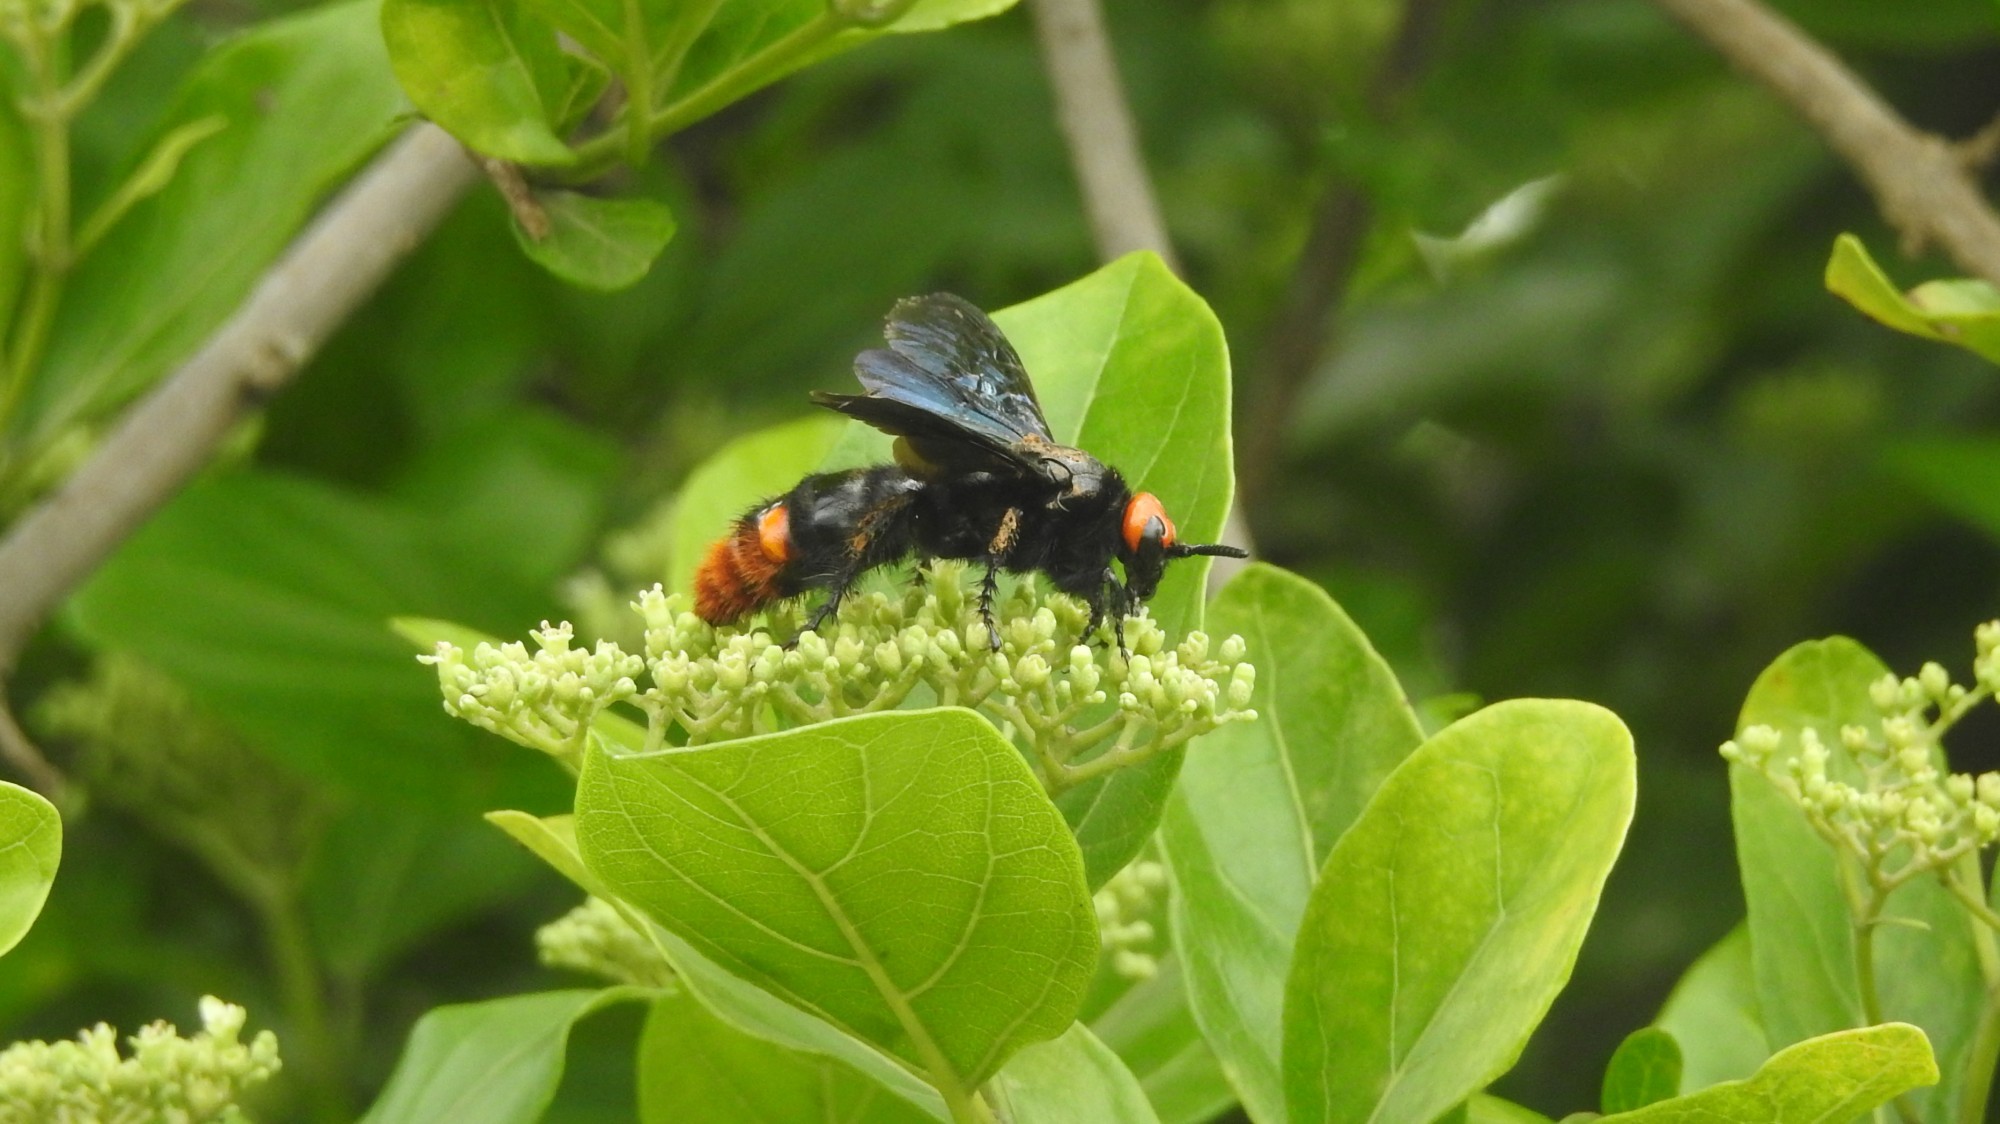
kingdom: Animalia
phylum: Arthropoda
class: Insecta
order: Hymenoptera
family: Scoliidae
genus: Megascolia
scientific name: Megascolia azurea
